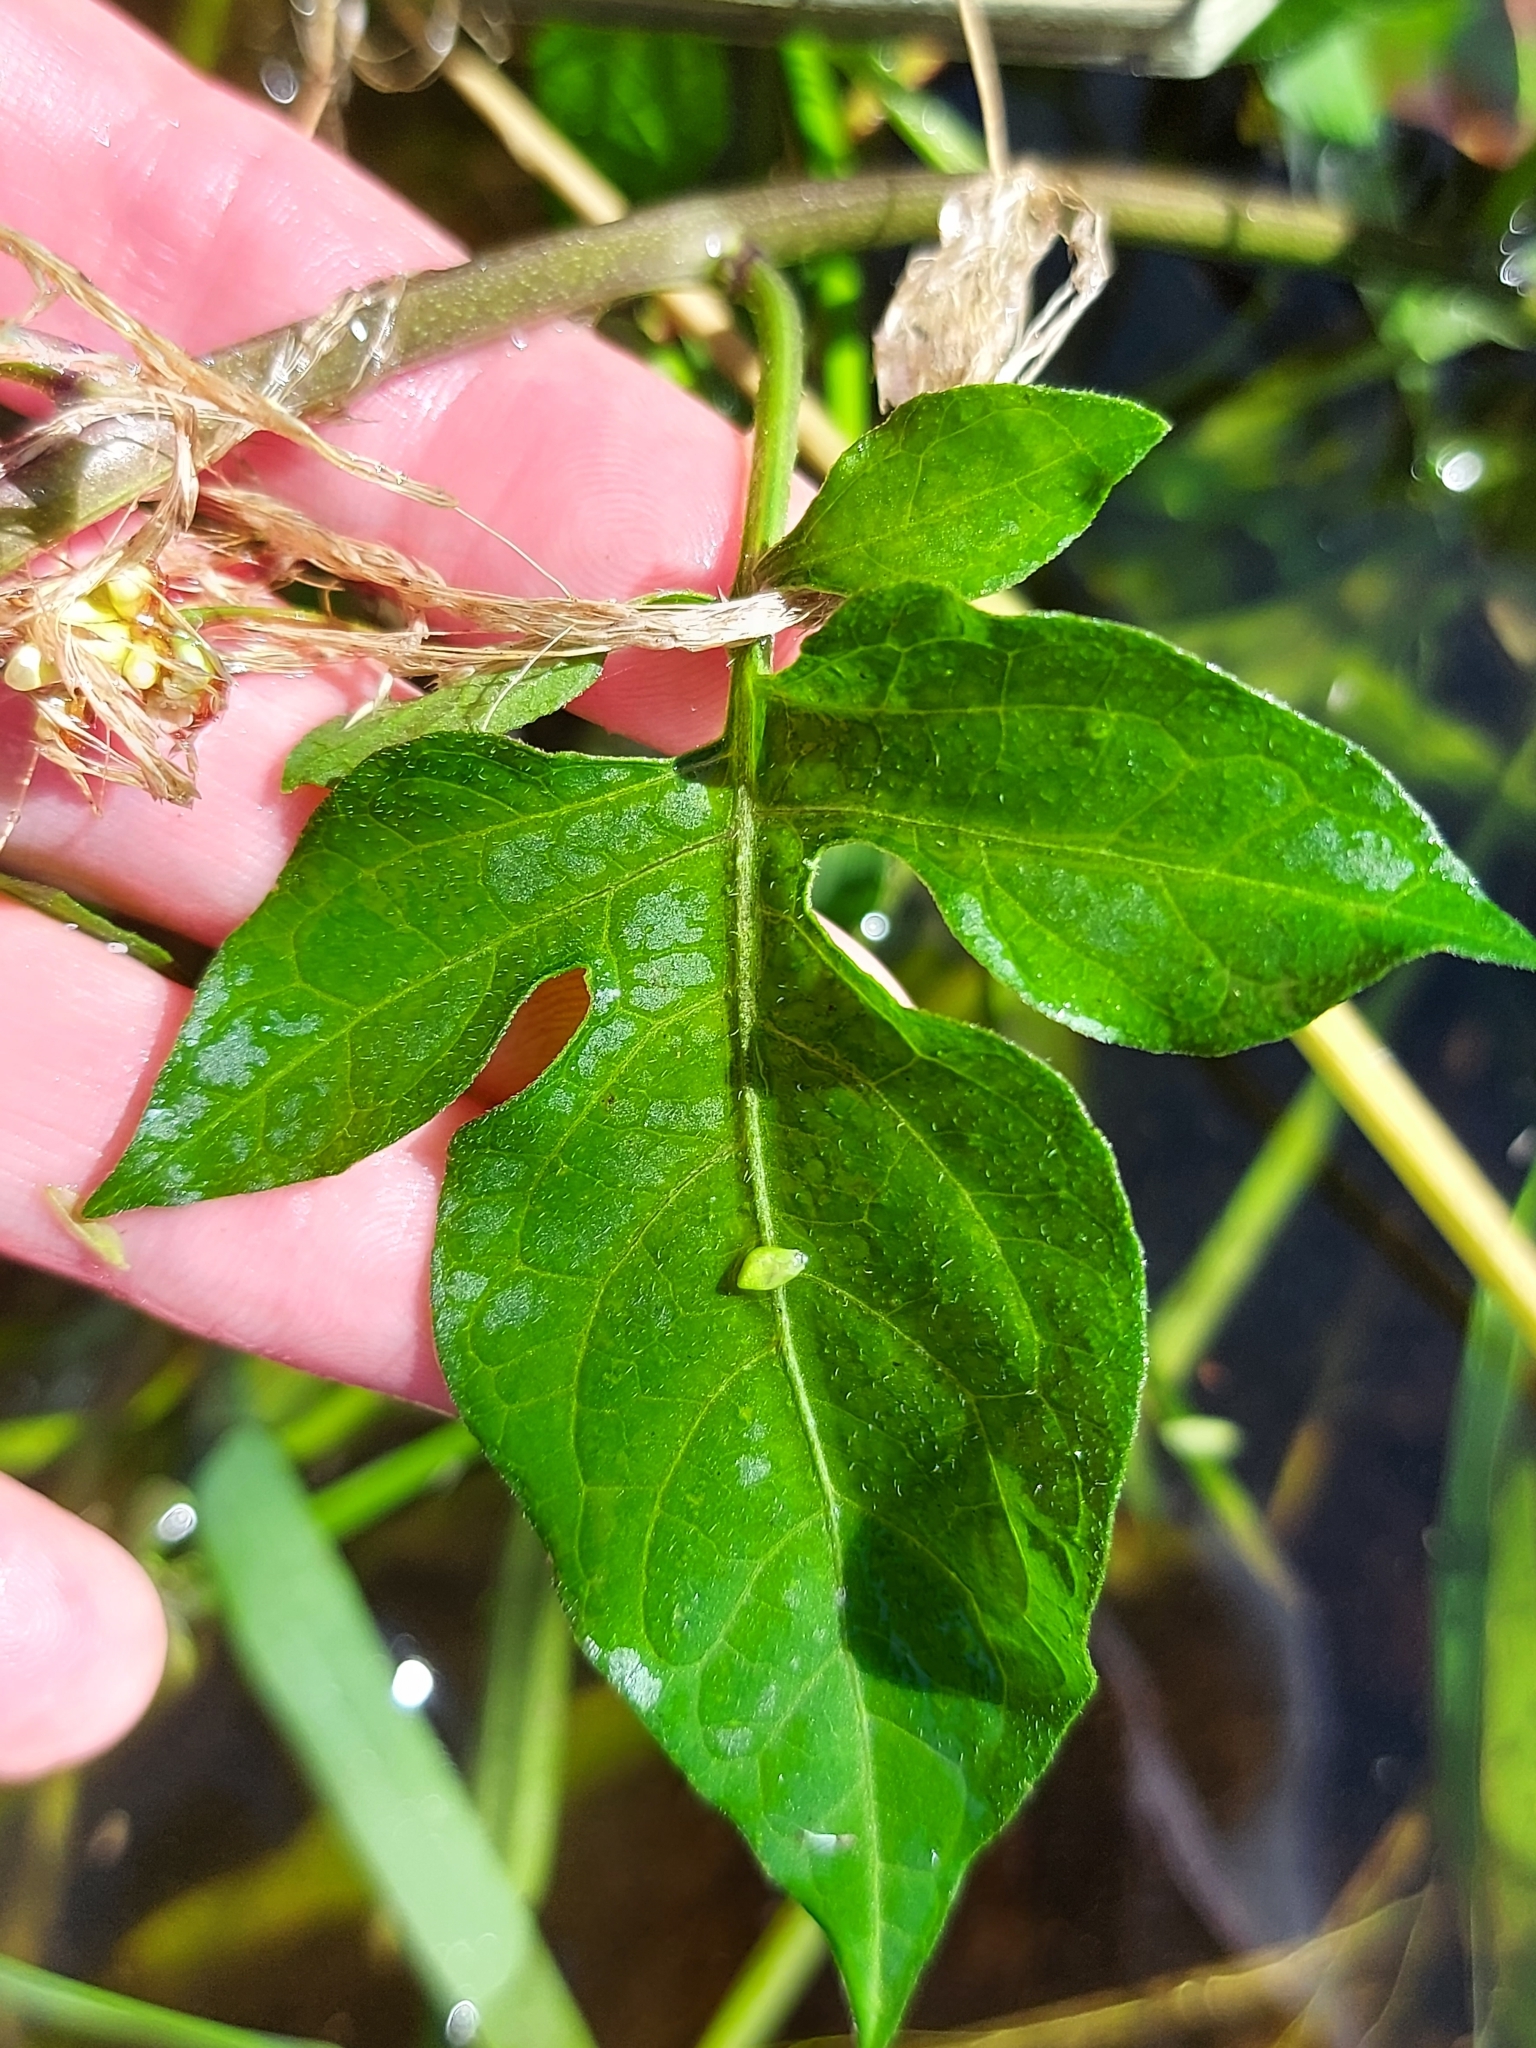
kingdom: Plantae
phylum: Tracheophyta
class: Magnoliopsida
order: Solanales
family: Solanaceae
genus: Solanum
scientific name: Solanum dulcamara
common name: Climbing nightshade
